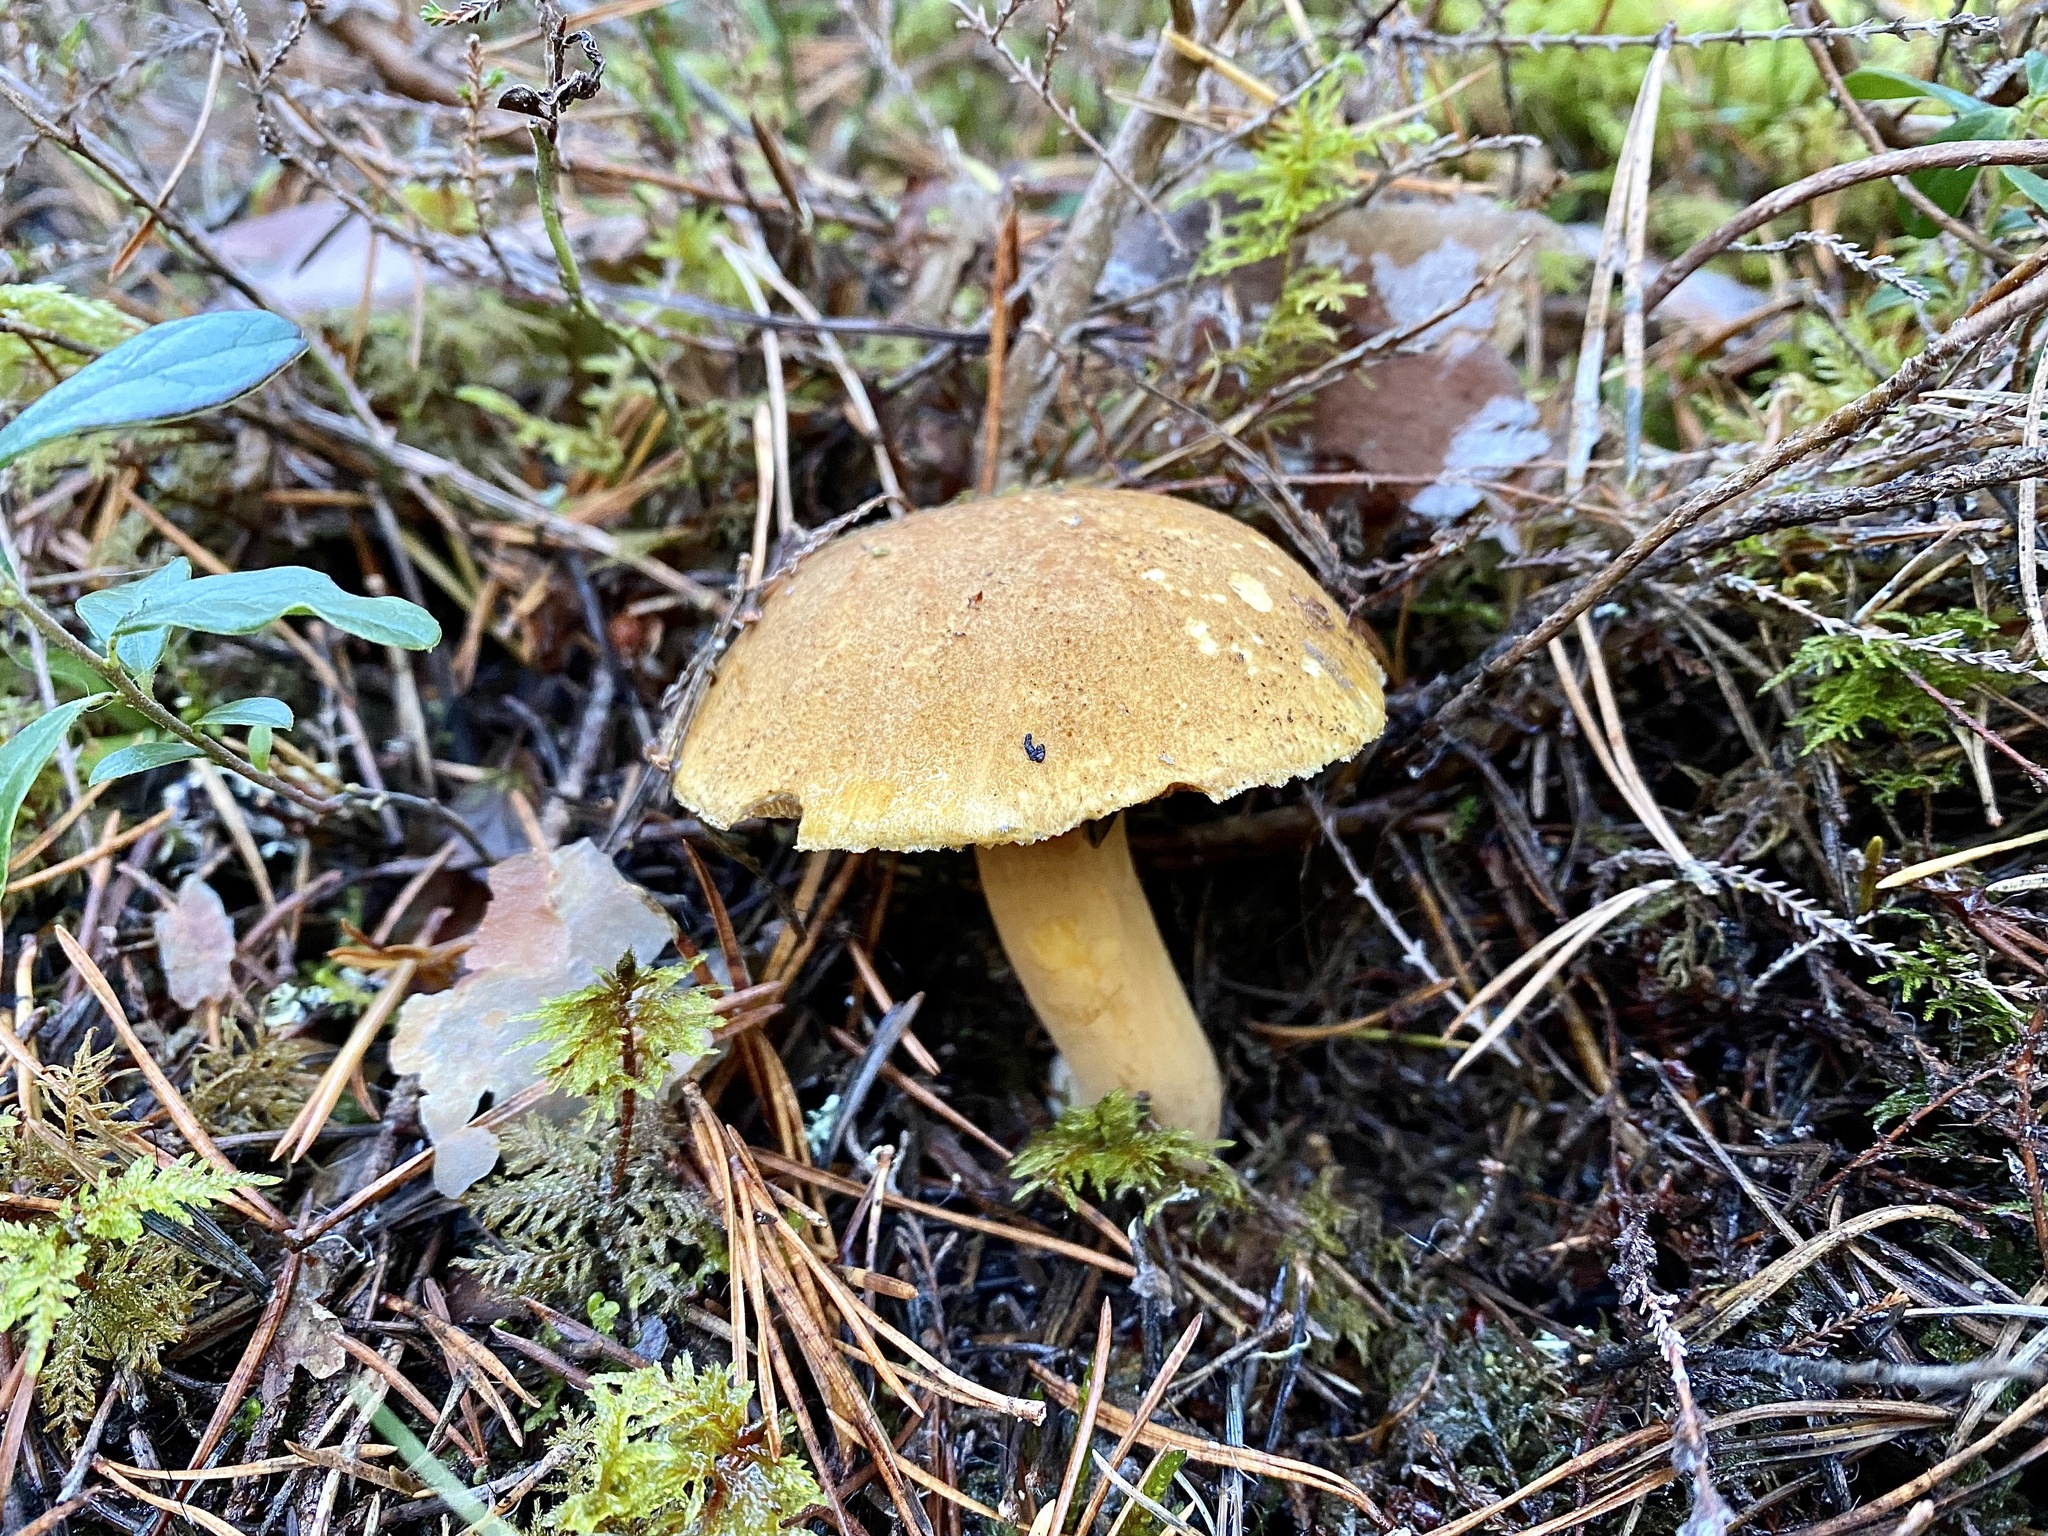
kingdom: Fungi
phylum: Basidiomycota
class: Agaricomycetes
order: Boletales
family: Suillaceae
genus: Suillus
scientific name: Suillus variegatus
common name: Velvet bolete
